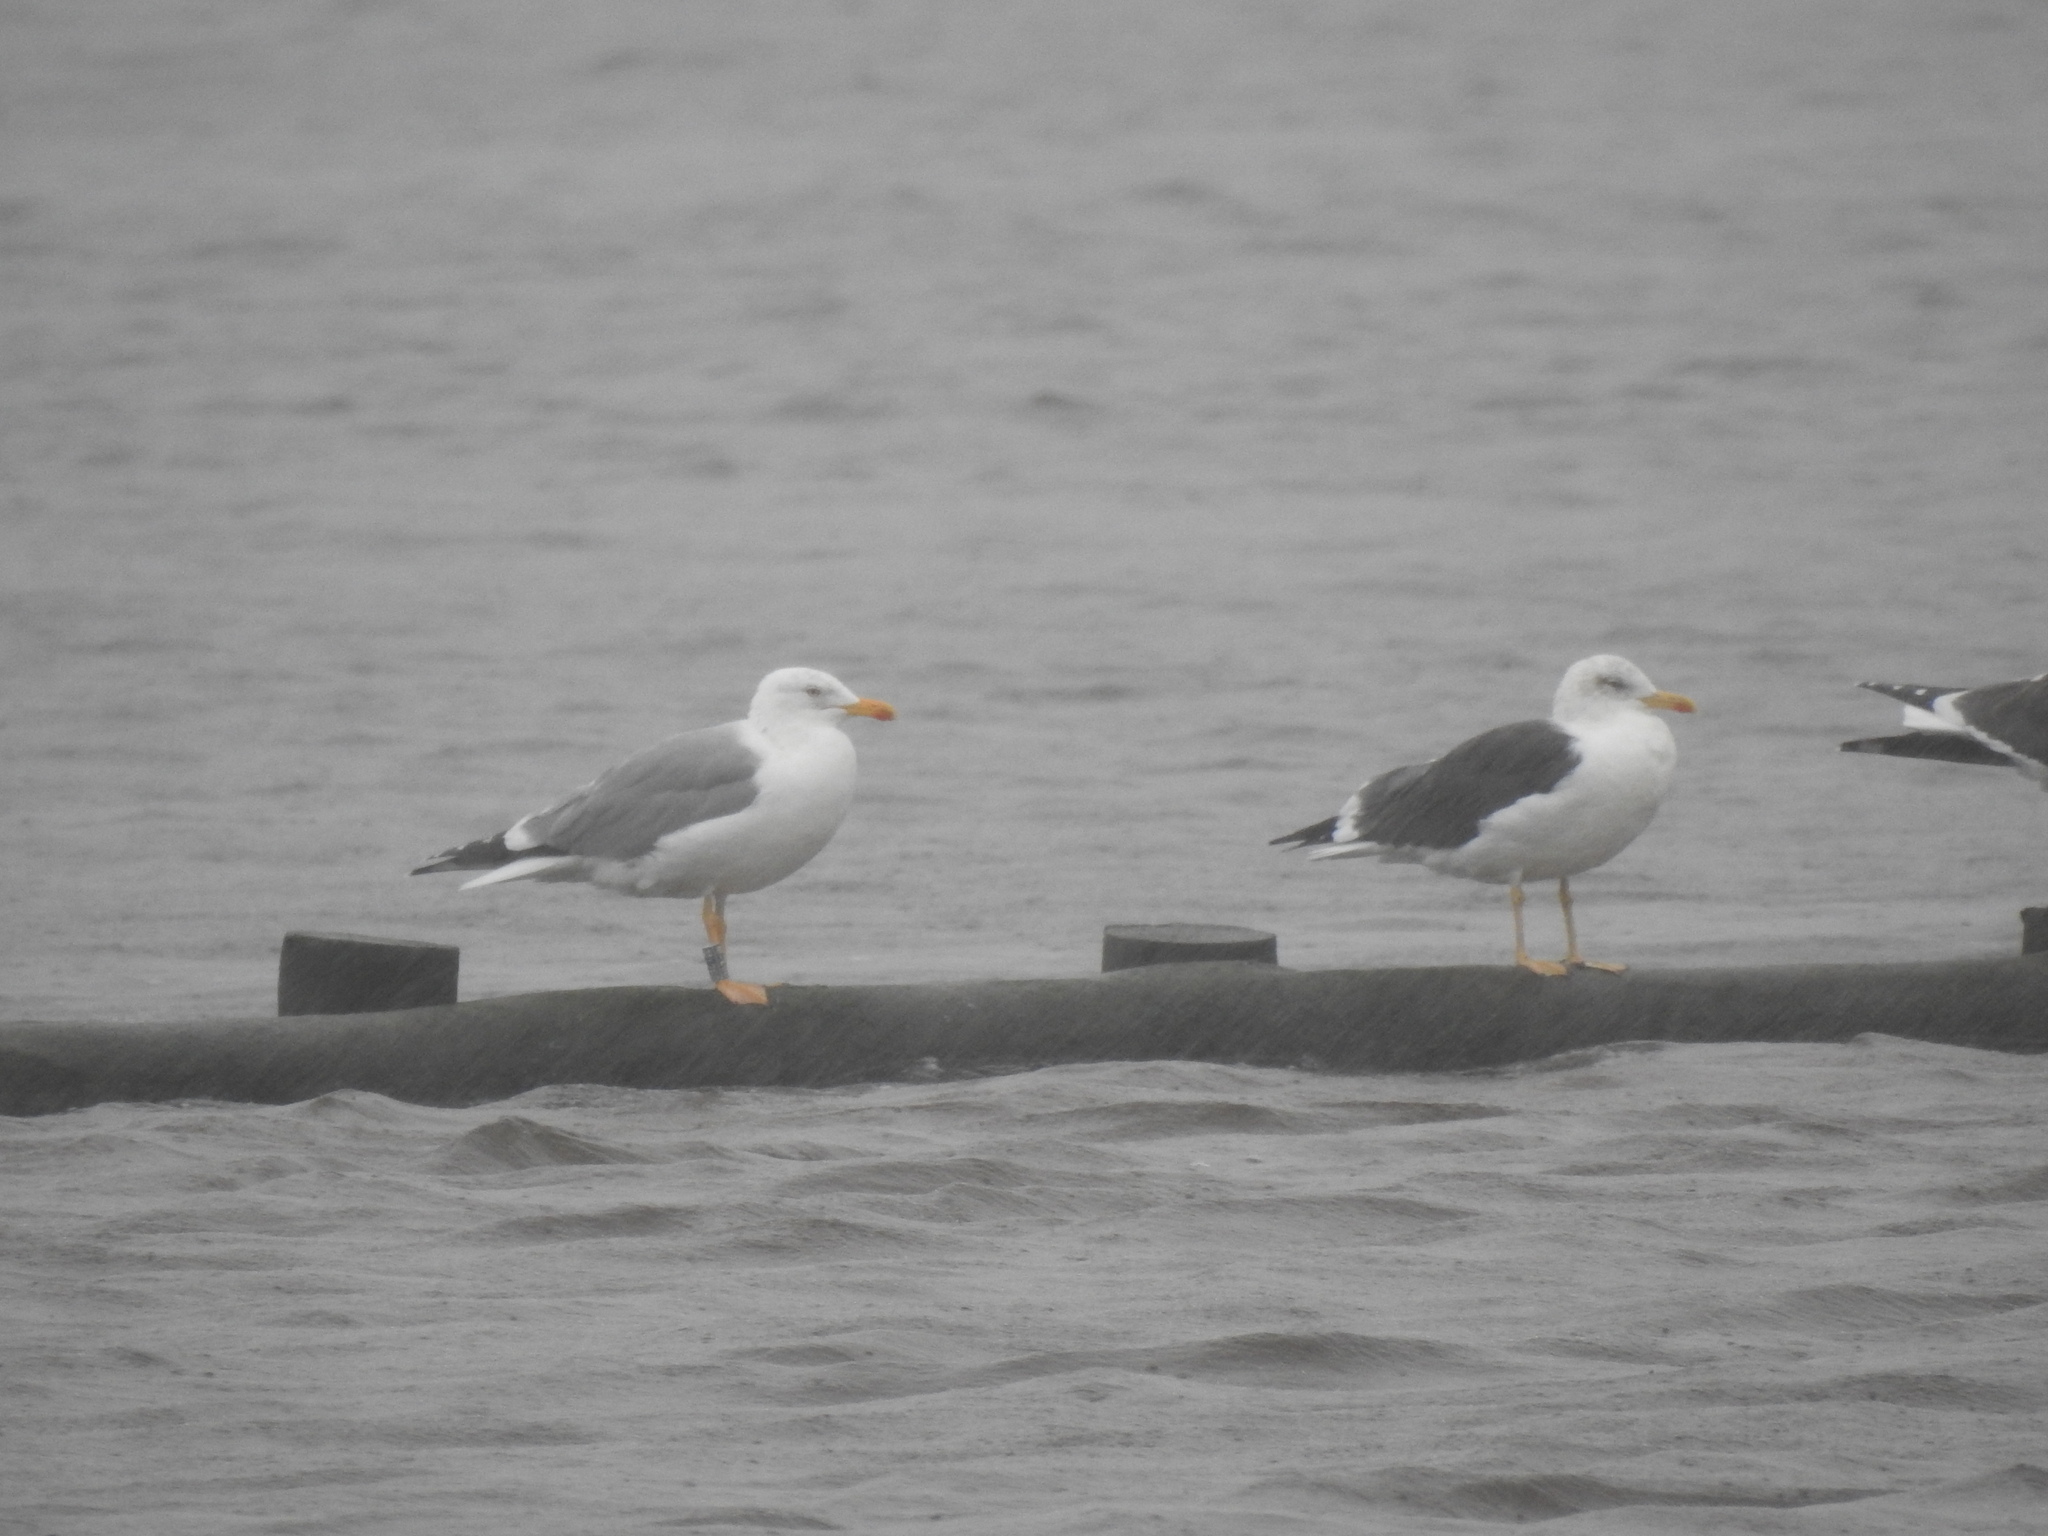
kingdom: Animalia
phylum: Chordata
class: Aves
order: Charadriiformes
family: Laridae
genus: Larus
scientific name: Larus michahellis
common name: Yellow-legged gull
